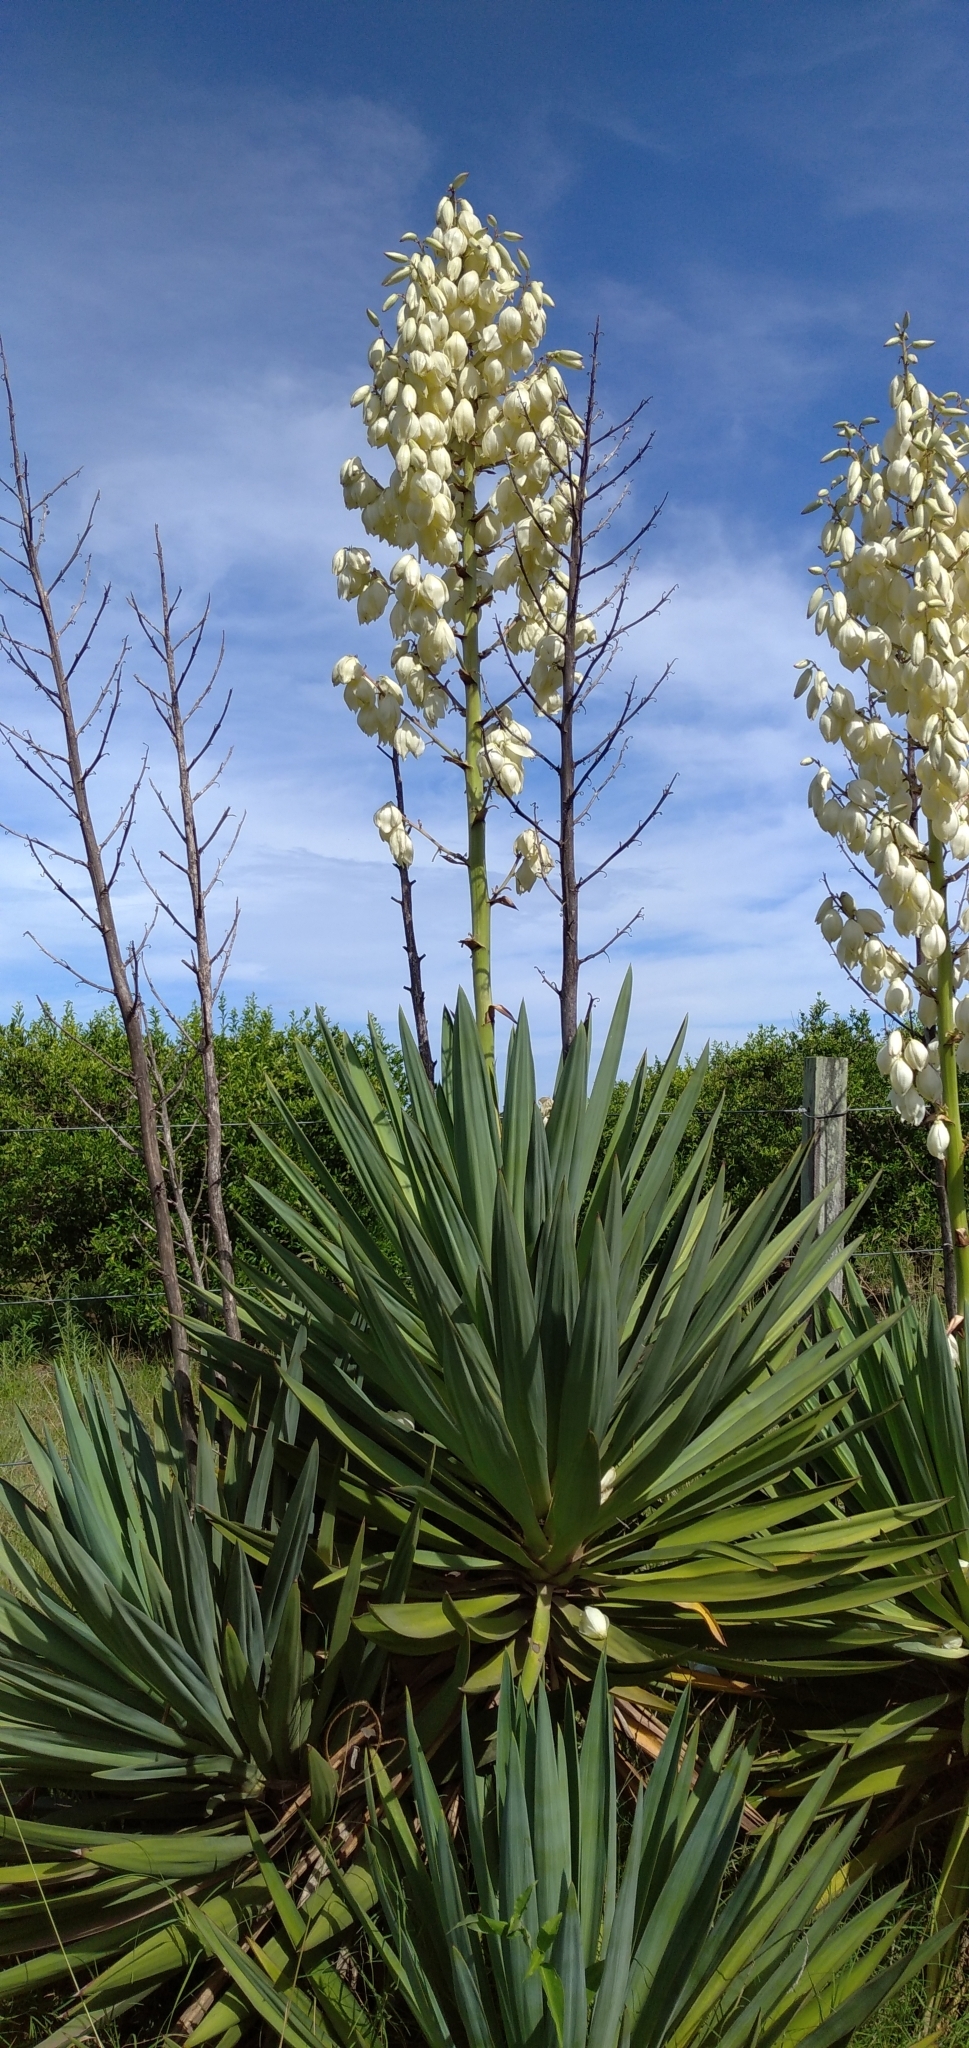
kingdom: Plantae
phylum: Tracheophyta
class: Liliopsida
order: Asparagales
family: Asparagaceae
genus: Yucca
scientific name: Yucca gloriosa
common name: Spanish-dagger
